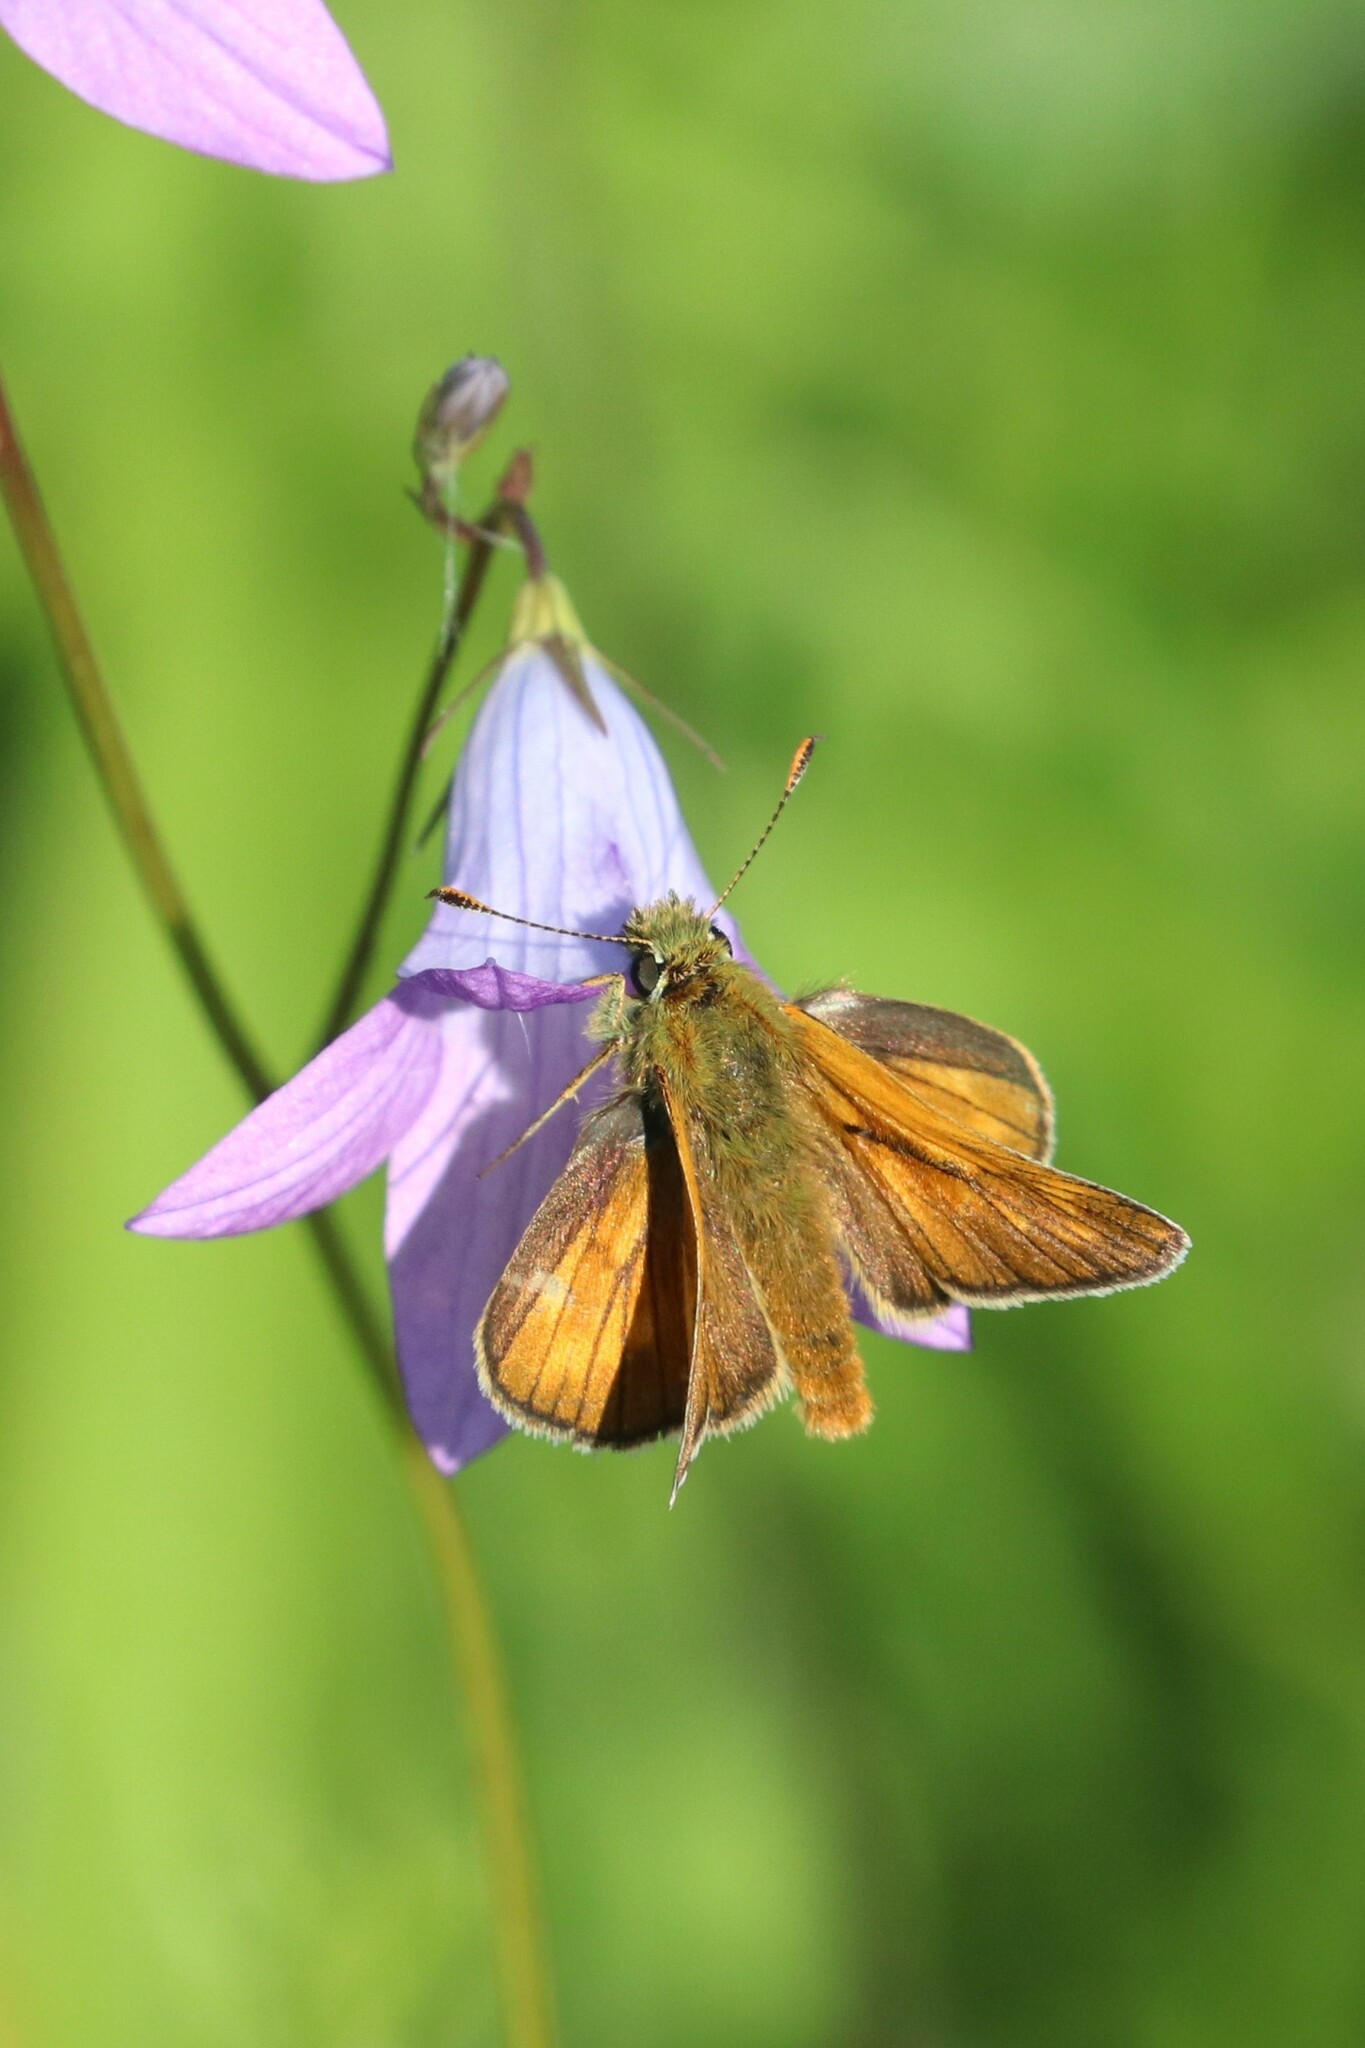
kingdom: Animalia
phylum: Arthropoda
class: Insecta
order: Lepidoptera
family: Hesperiidae
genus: Ochlodes
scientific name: Ochlodes venata
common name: Large skipper
